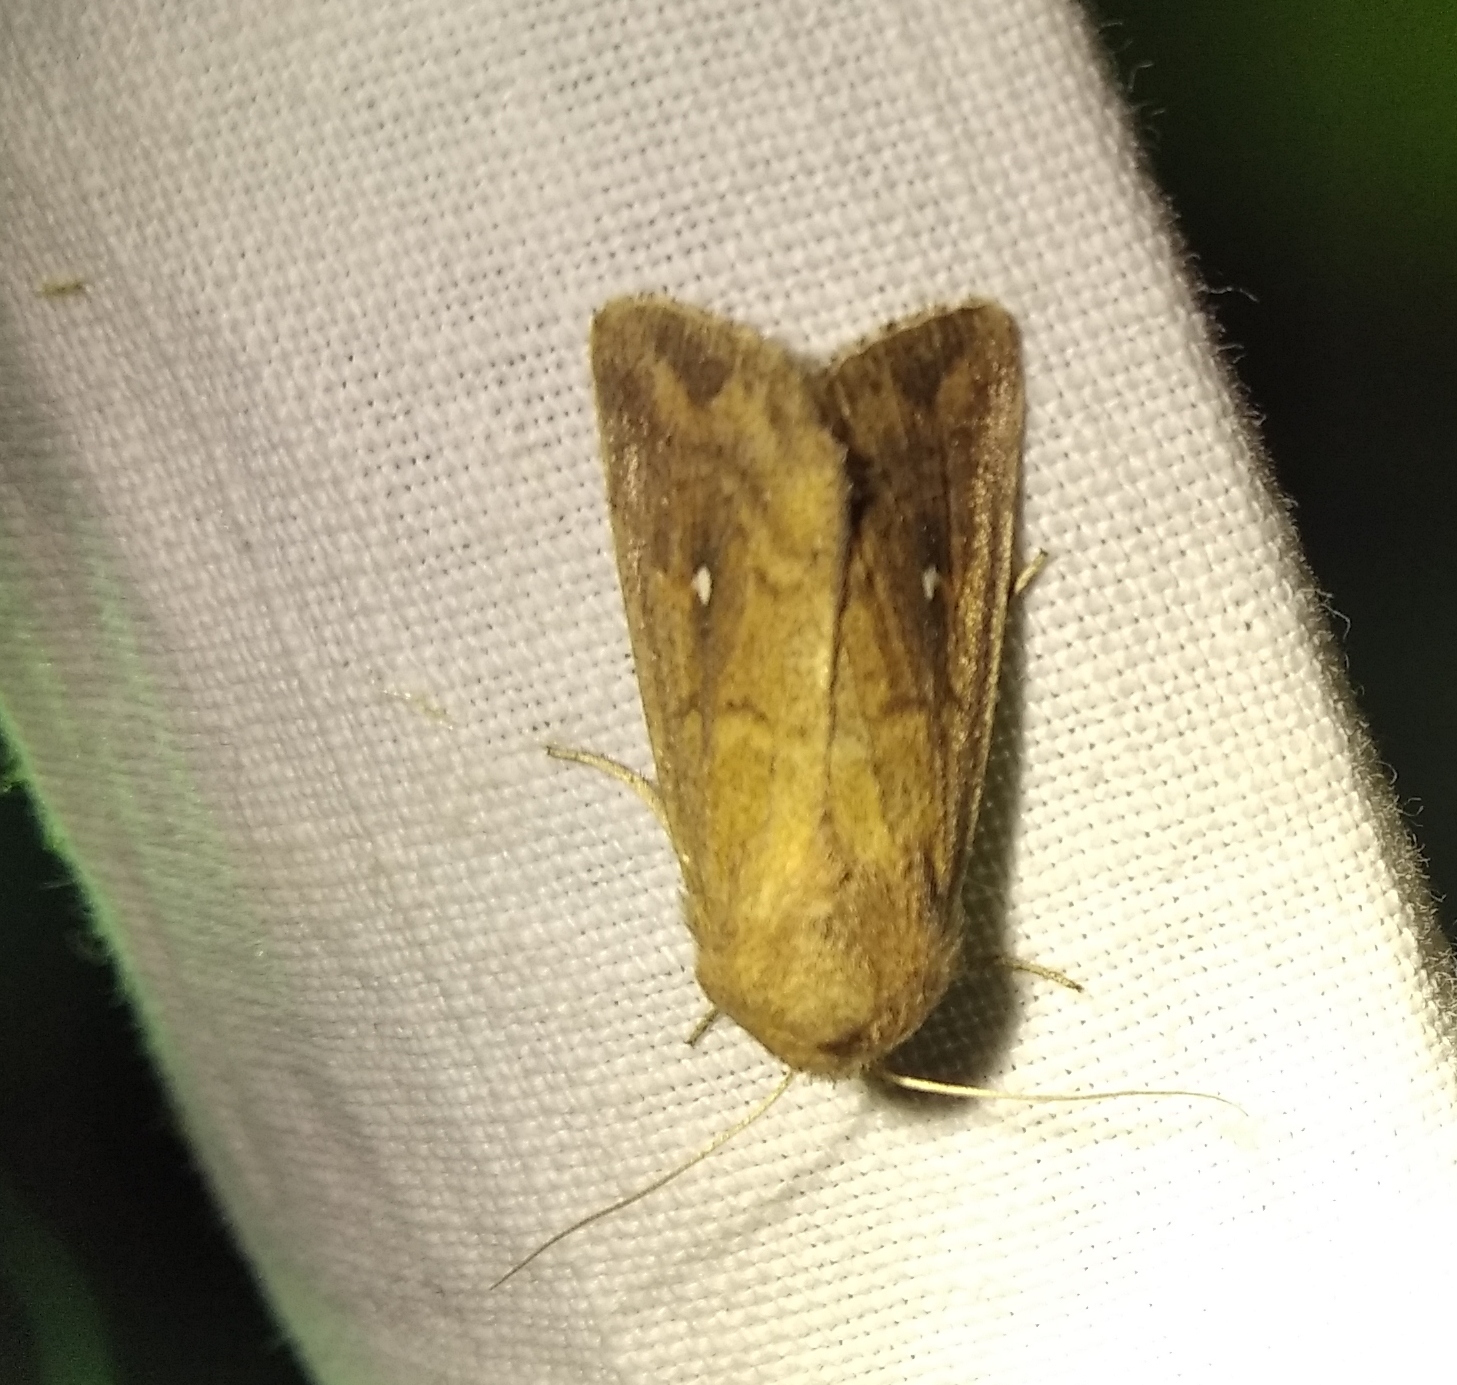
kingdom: Animalia
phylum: Arthropoda
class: Insecta
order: Lepidoptera
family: Noctuidae
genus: Mythimna
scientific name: Mythimna albipuncta
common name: White-point
